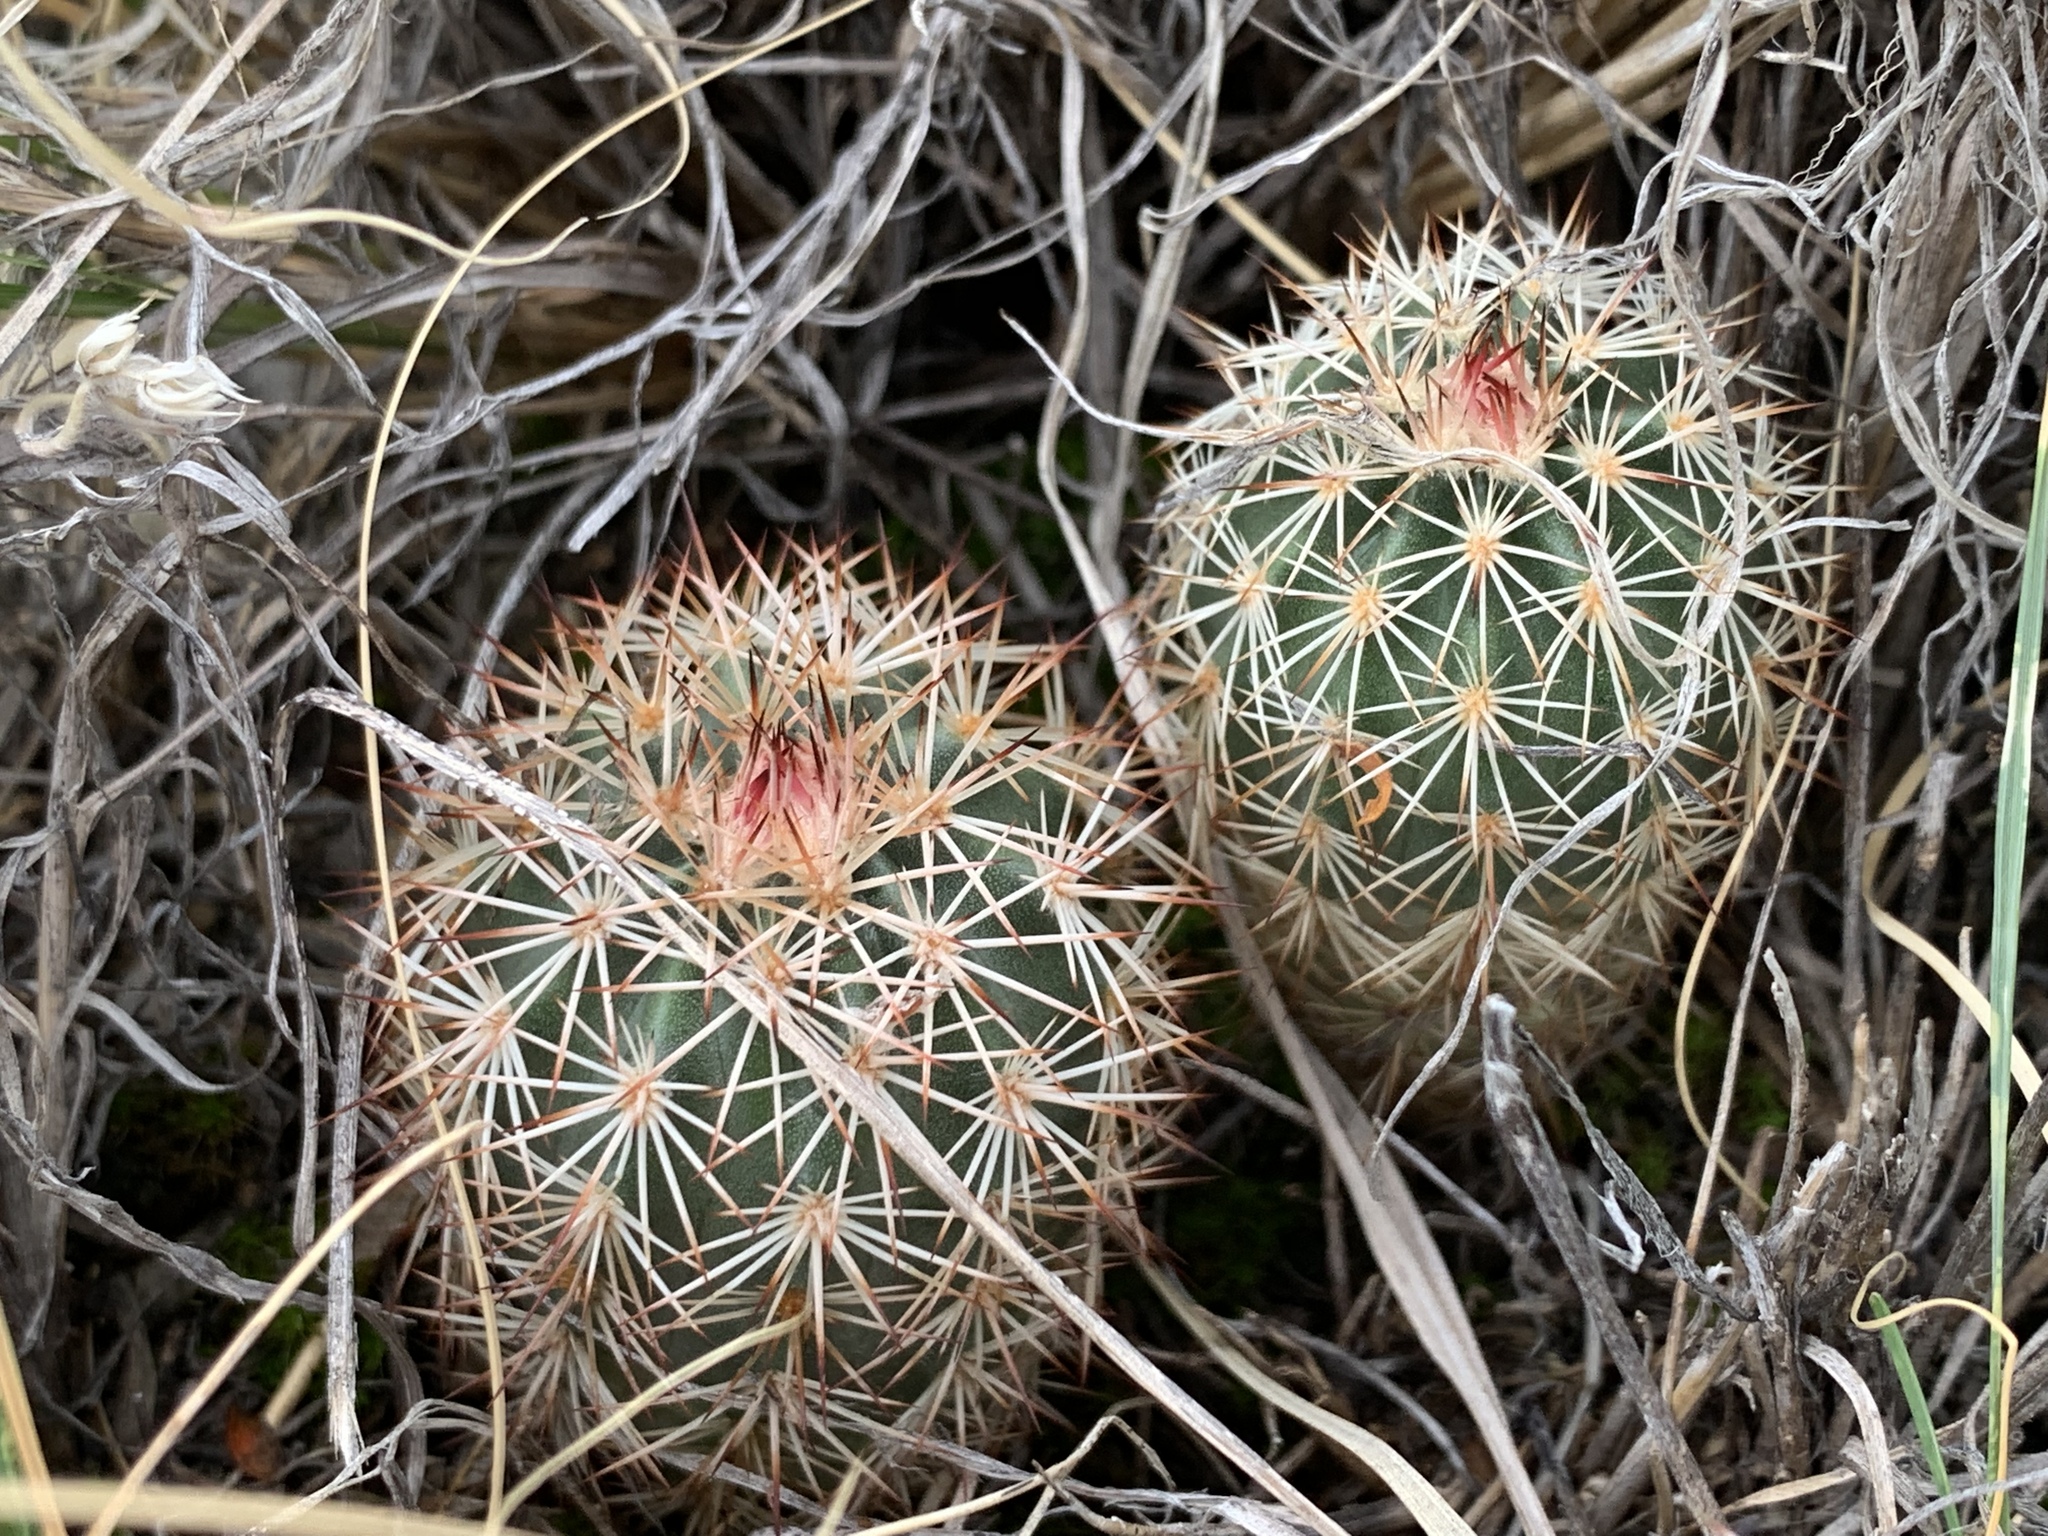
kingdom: Plantae
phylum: Tracheophyta
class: Magnoliopsida
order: Caryophyllales
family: Cactaceae
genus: Echinocereus
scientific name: Echinocereus roetteri
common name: Lloyd's hedgehog cactus
